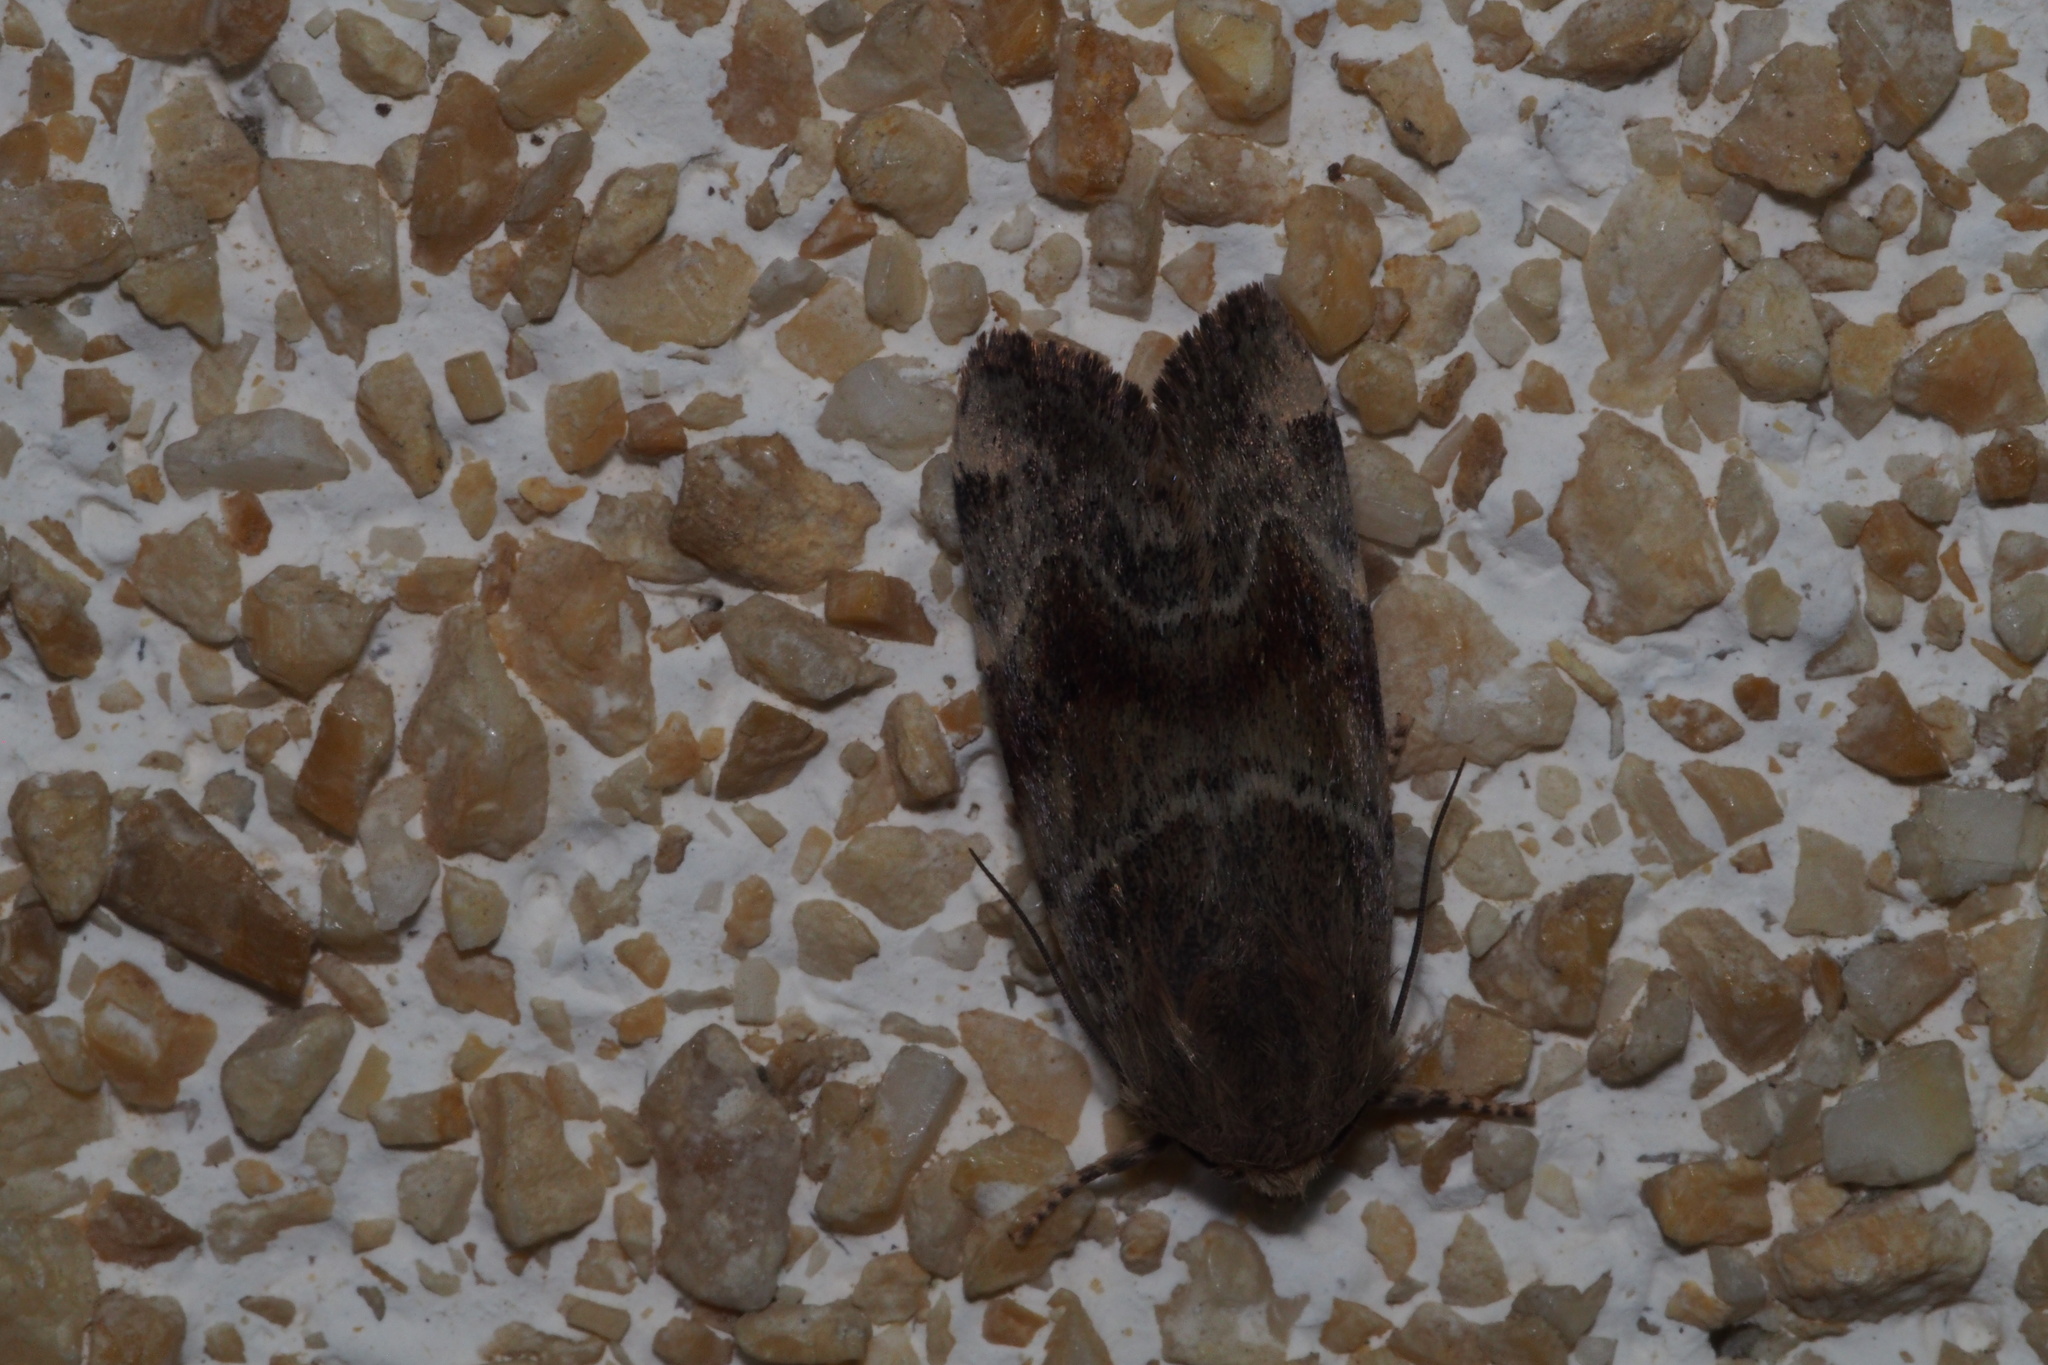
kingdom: Animalia
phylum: Arthropoda
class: Insecta
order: Lepidoptera
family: Noctuidae
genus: Cosmia
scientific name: Cosmia camptostigma
